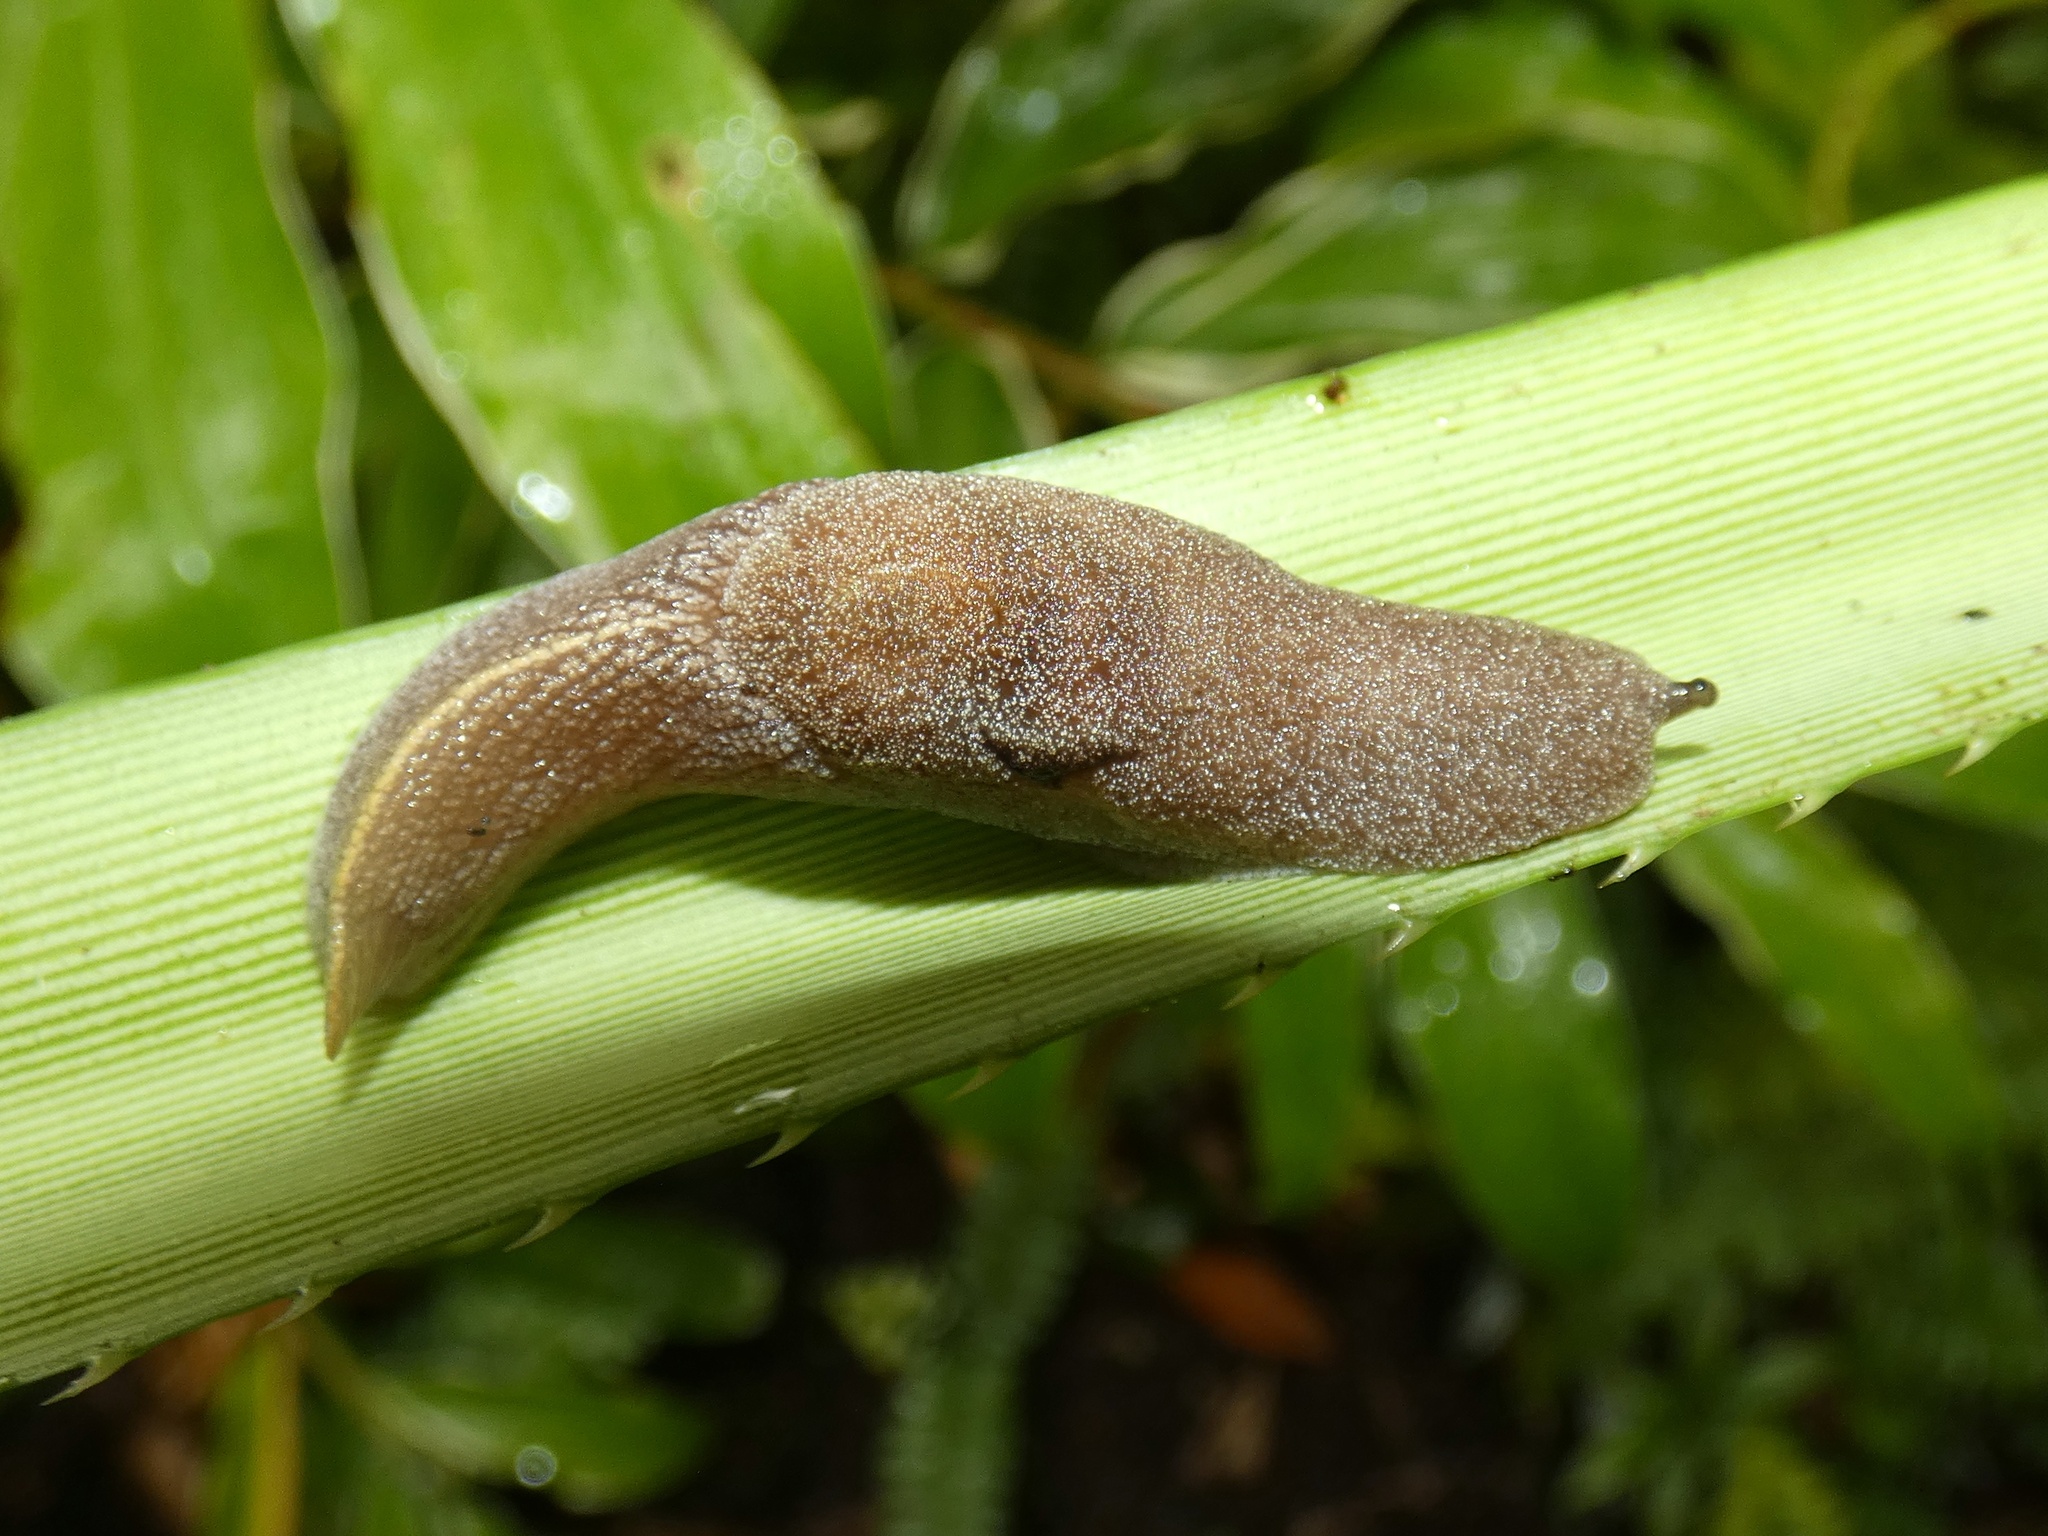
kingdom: Animalia
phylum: Mollusca
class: Gastropoda
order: Stylommatophora
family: Helicarionidae
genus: Parmacochlea
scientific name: Parmacochlea furca
